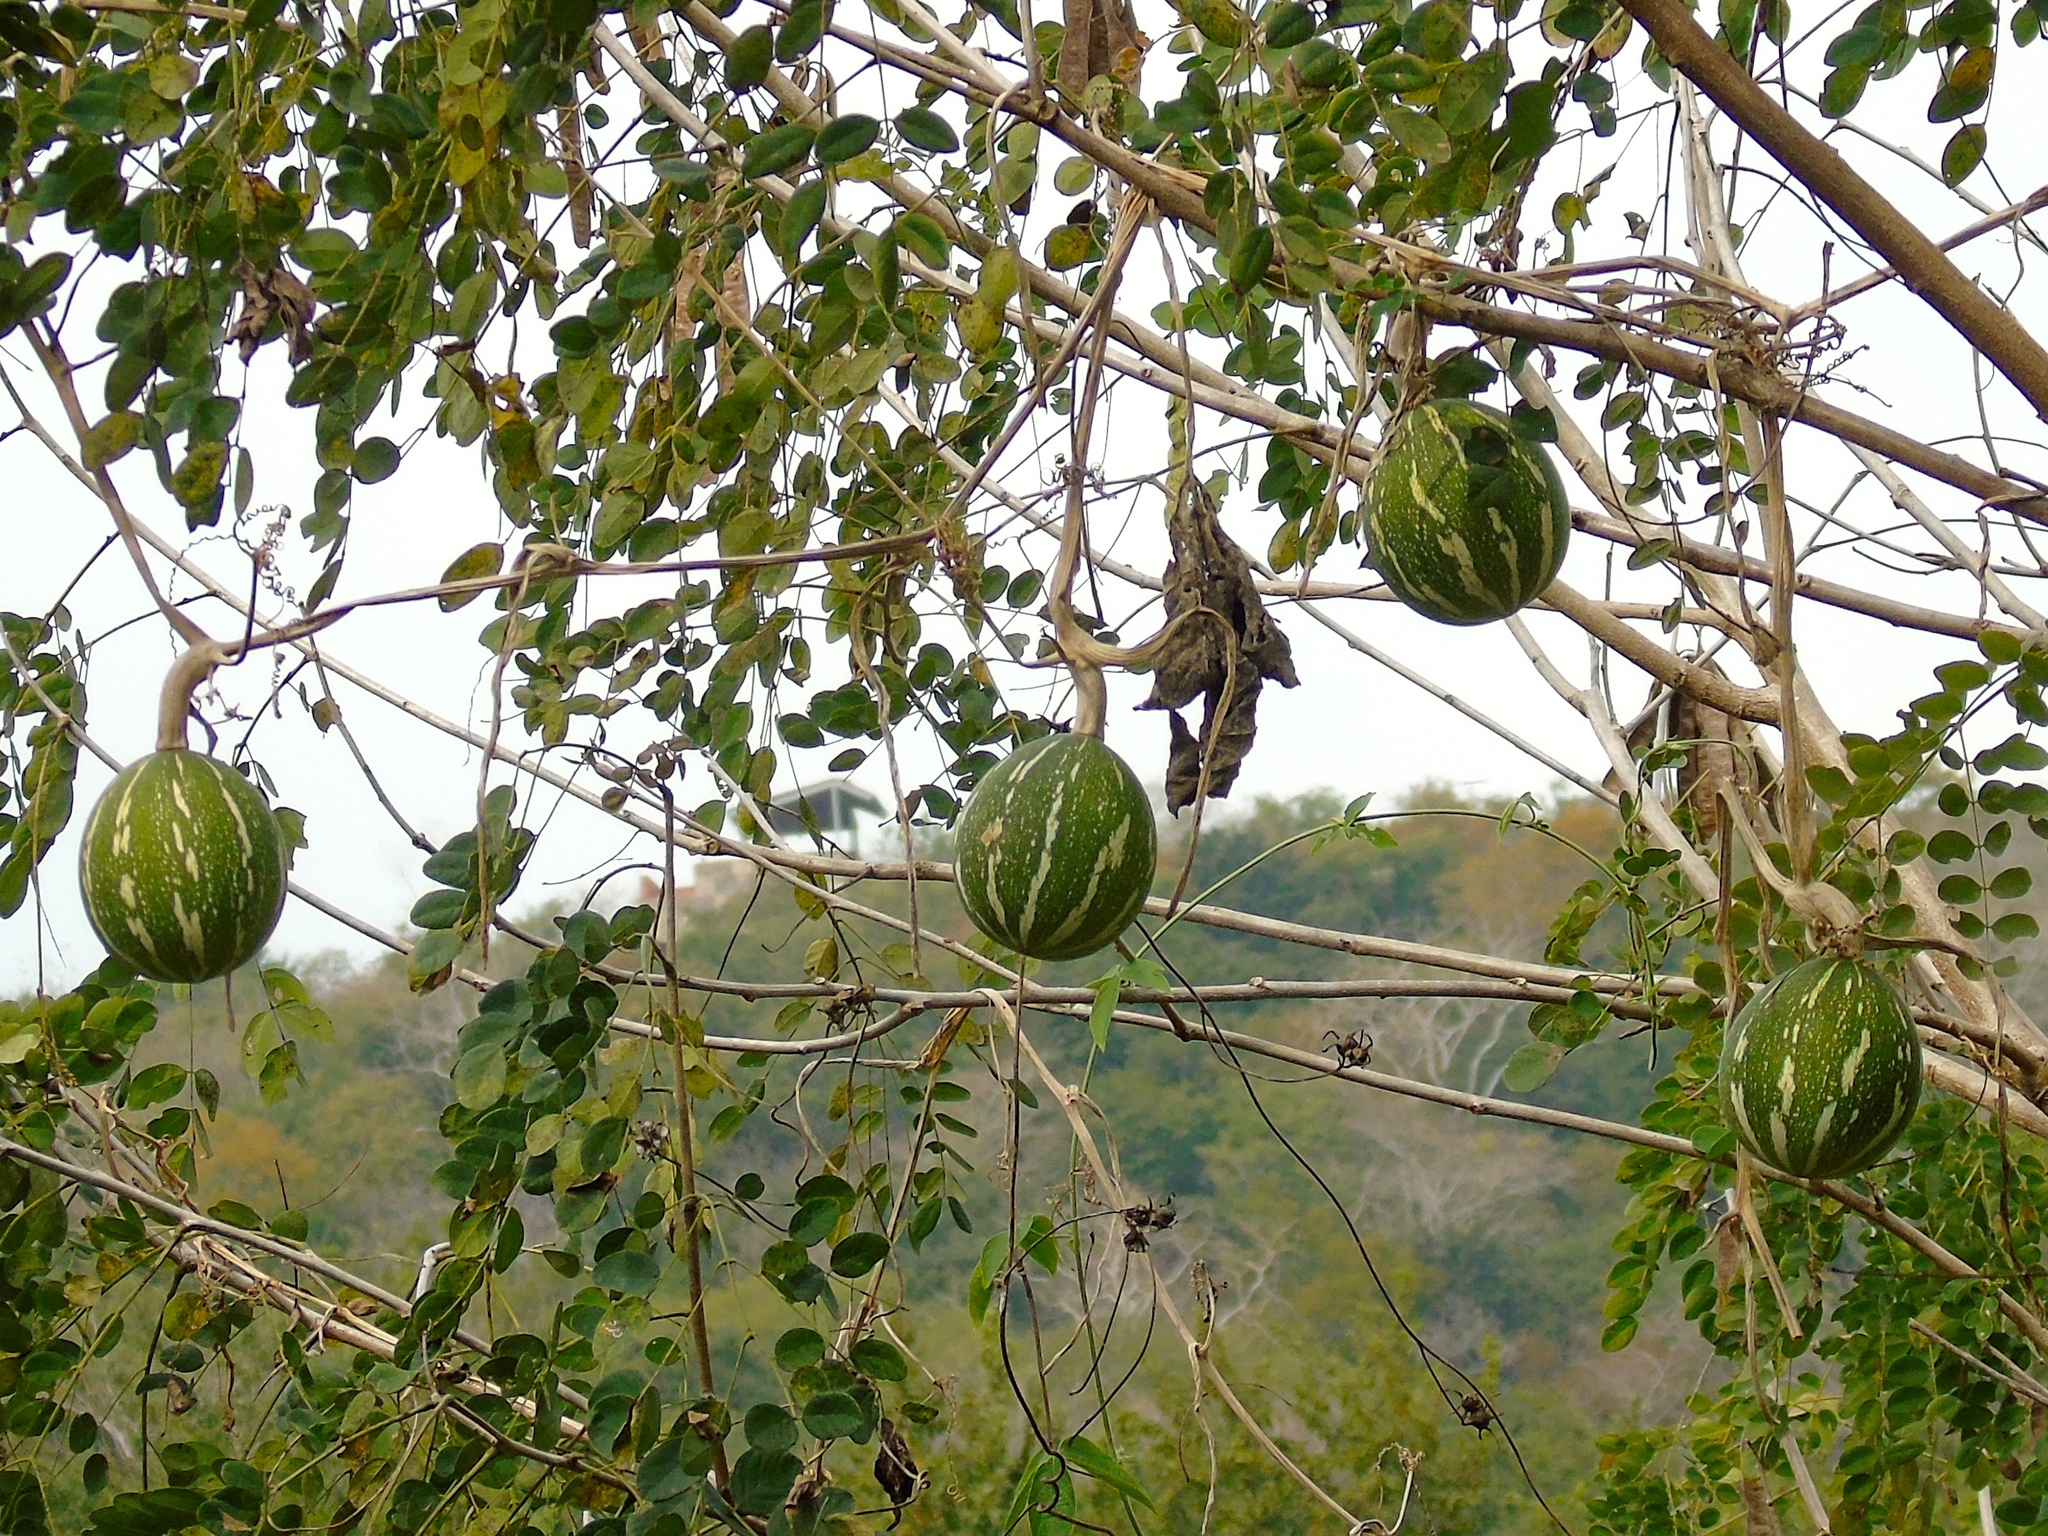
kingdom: Plantae
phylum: Tracheophyta
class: Magnoliopsida
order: Cucurbitales
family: Cucurbitaceae
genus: Cucurbita
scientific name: Cucurbita
